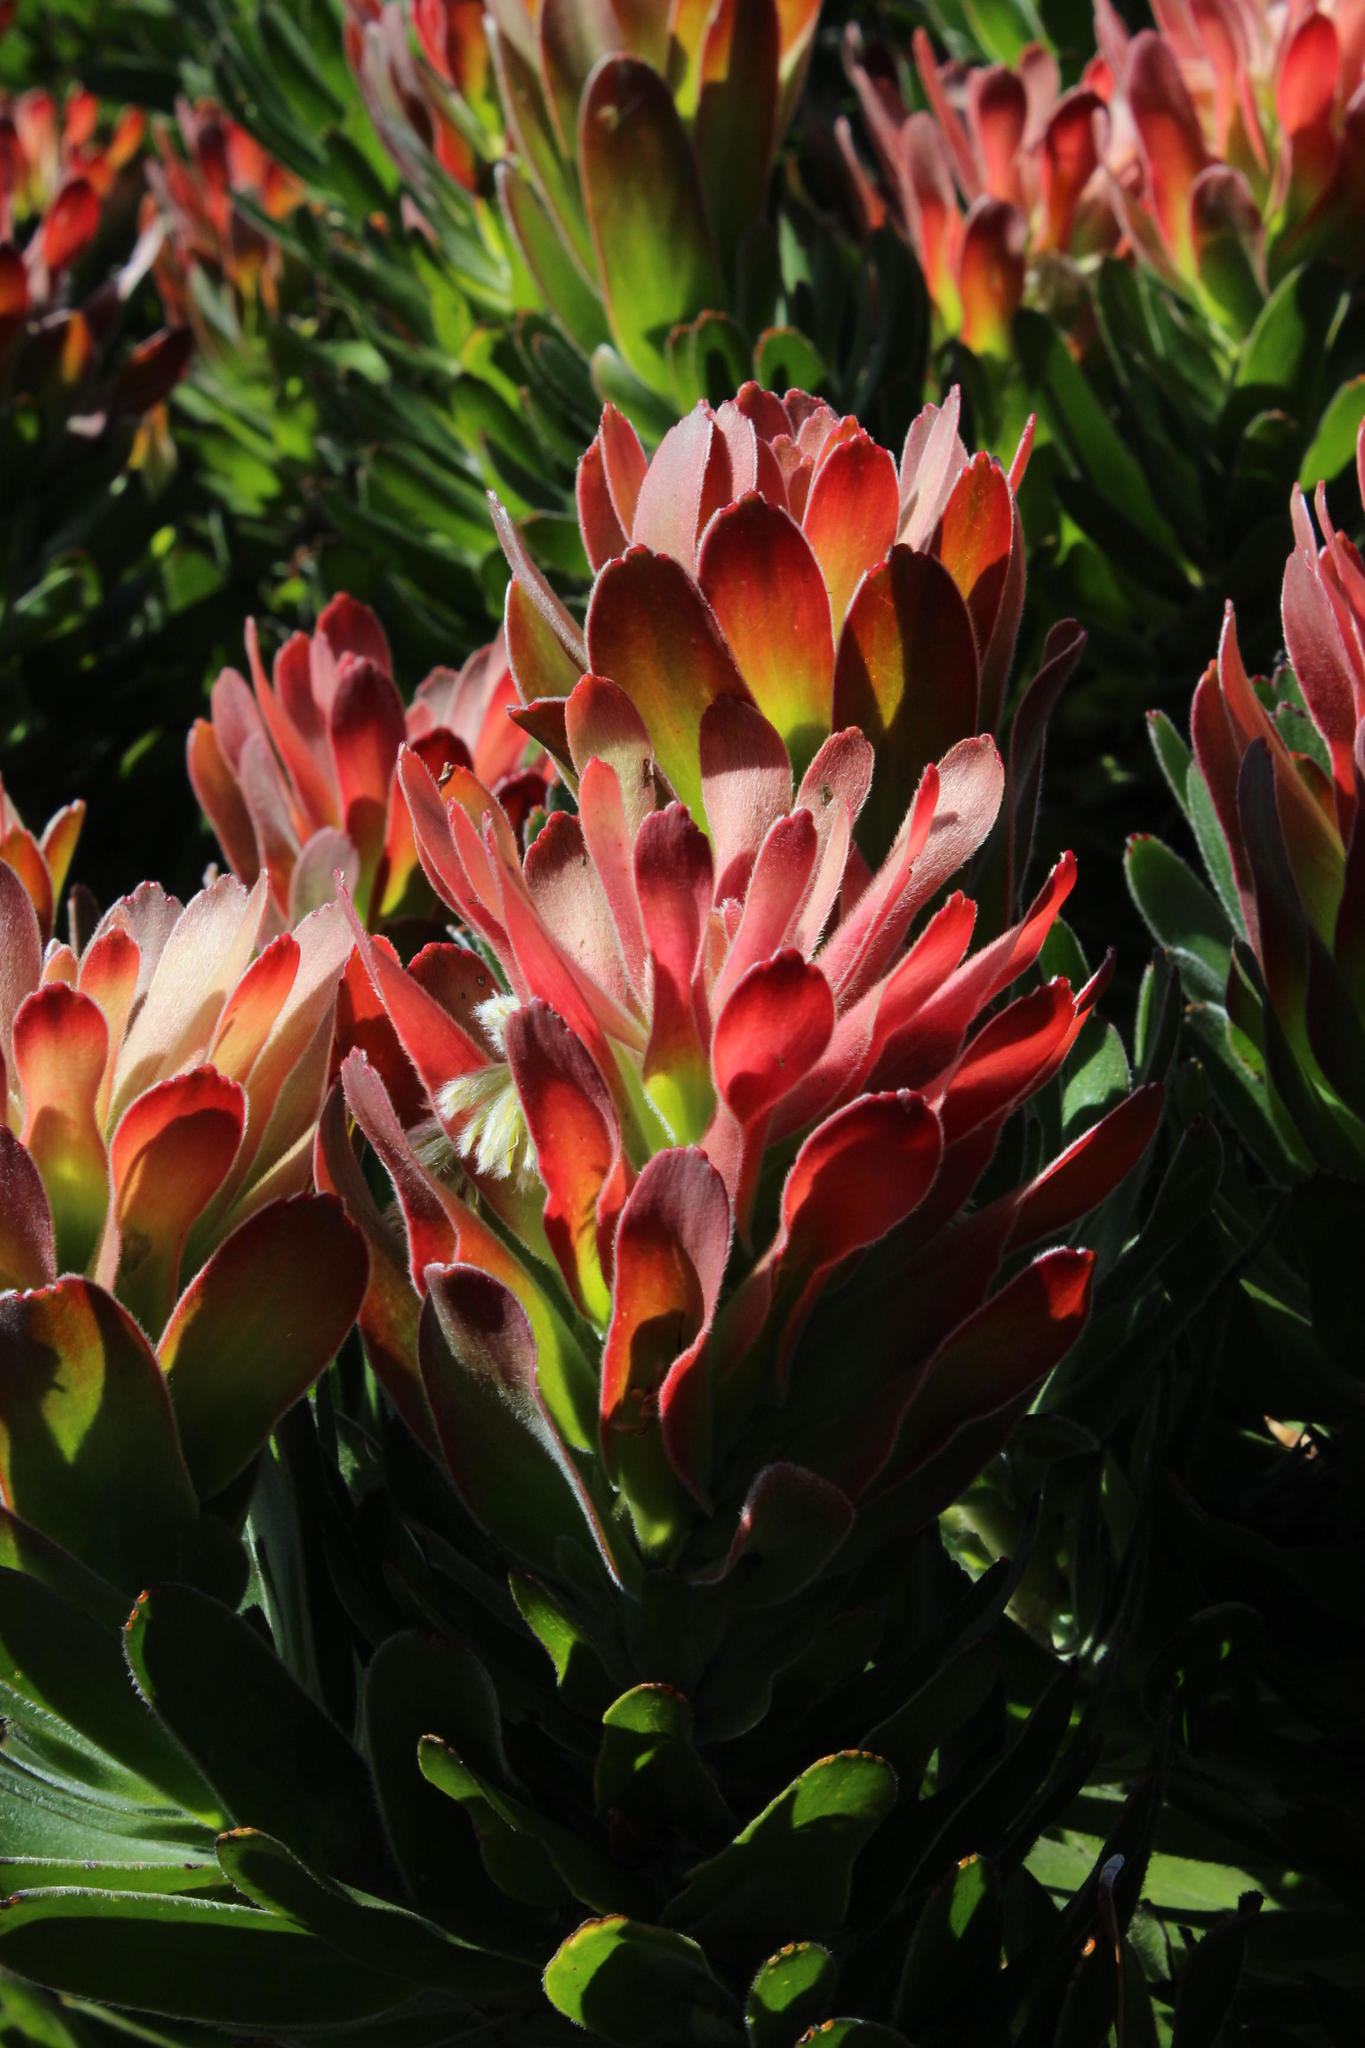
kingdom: Plantae
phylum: Tracheophyta
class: Magnoliopsida
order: Proteales
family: Proteaceae
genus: Mimetes
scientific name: Mimetes fimbriifolius
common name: Fringed bottlebrush
